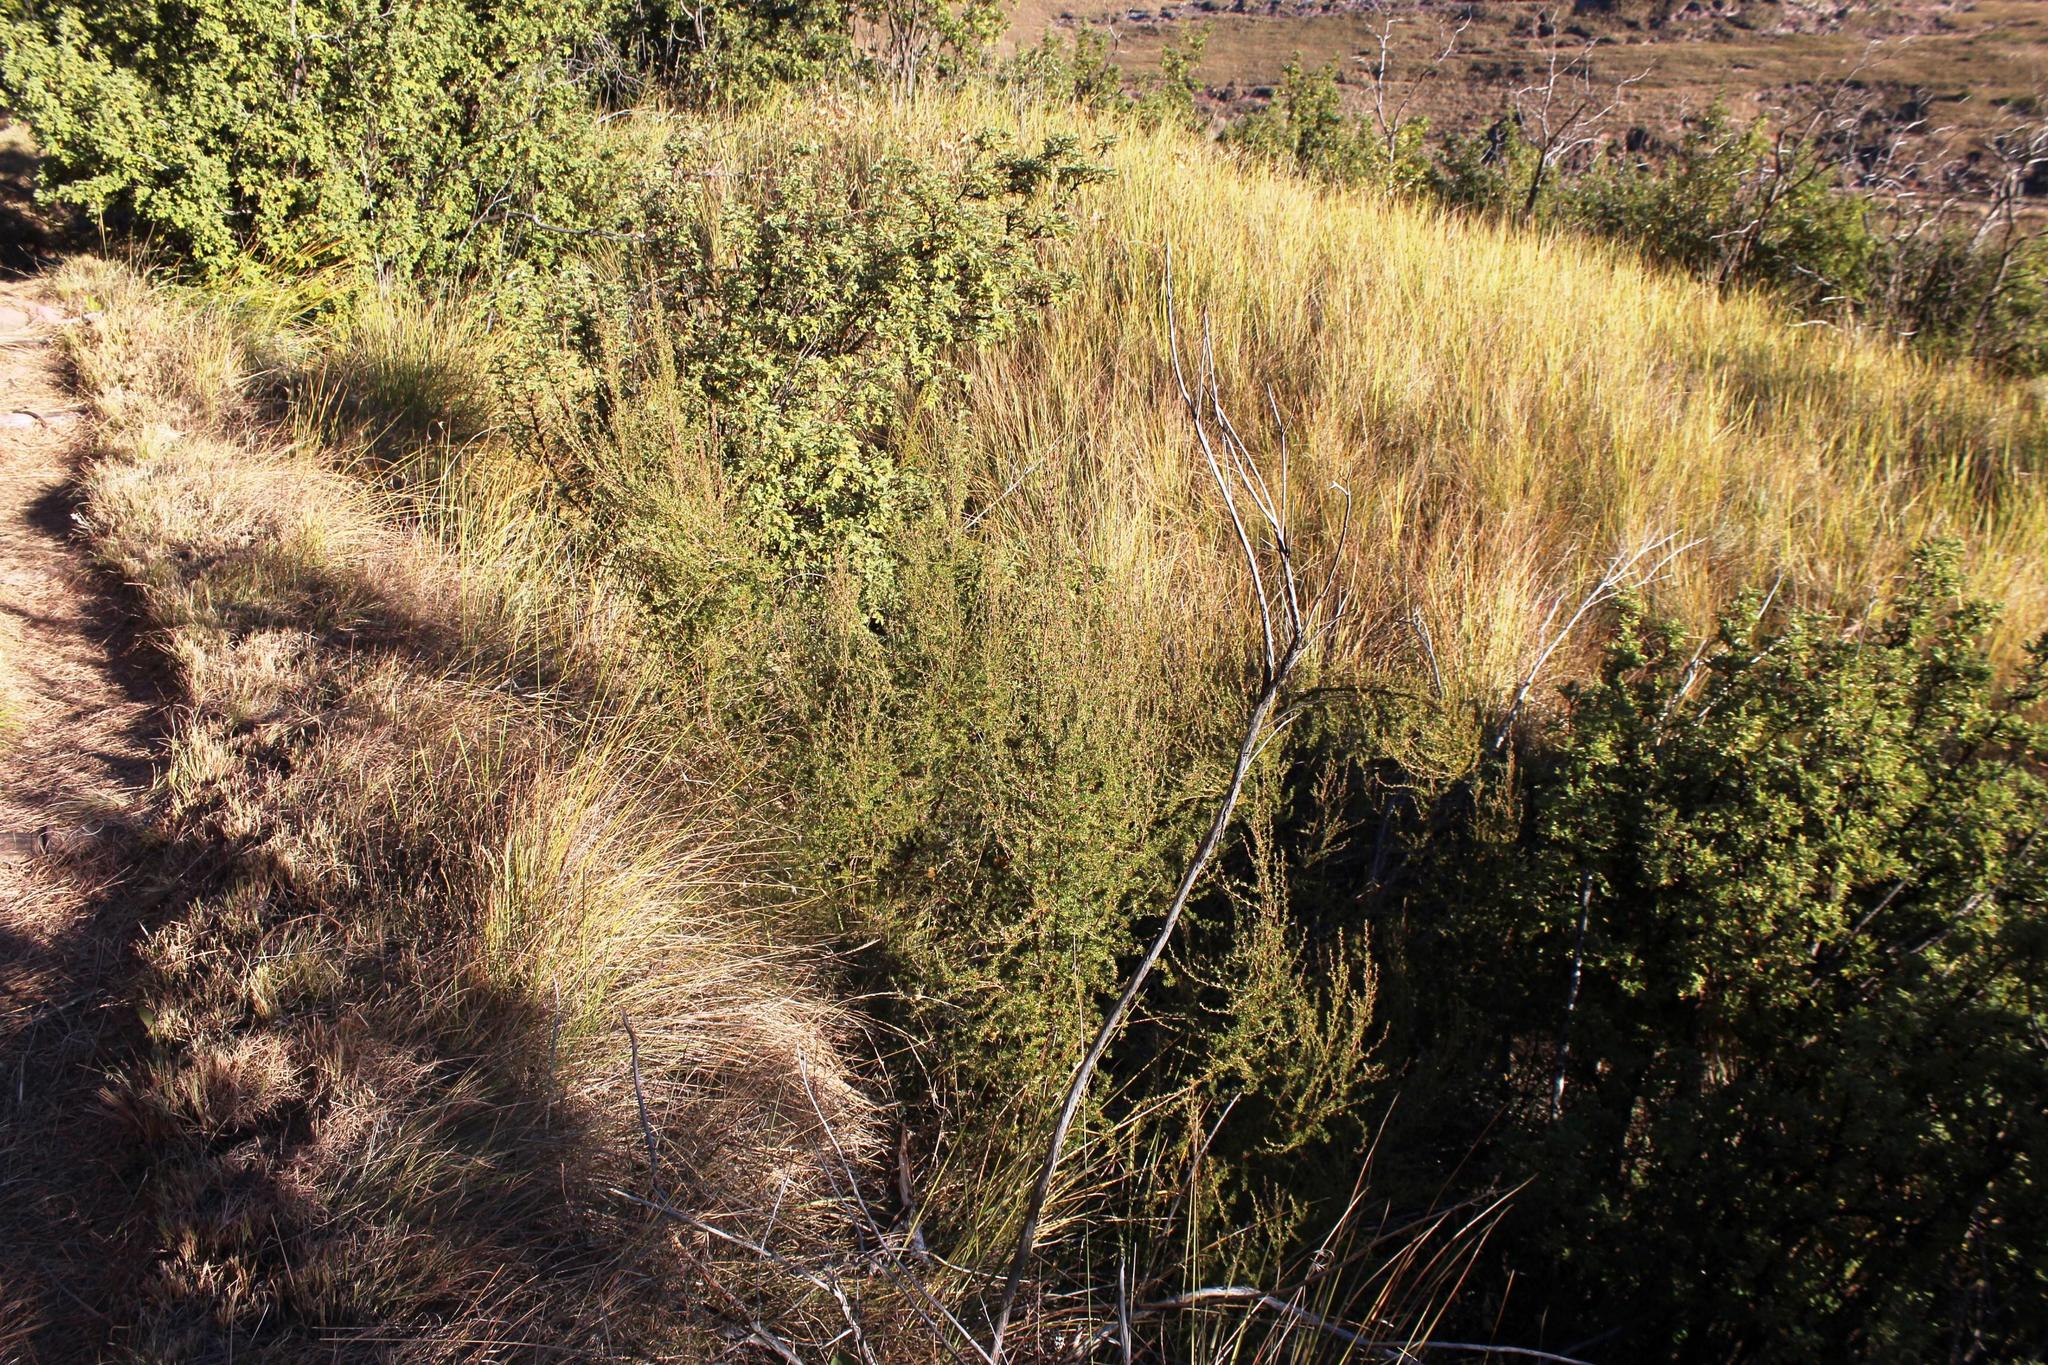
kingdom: Plantae
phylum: Tracheophyta
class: Magnoliopsida
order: Rosales
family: Rosaceae
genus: Cliffortia
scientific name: Cliffortia nitidula
